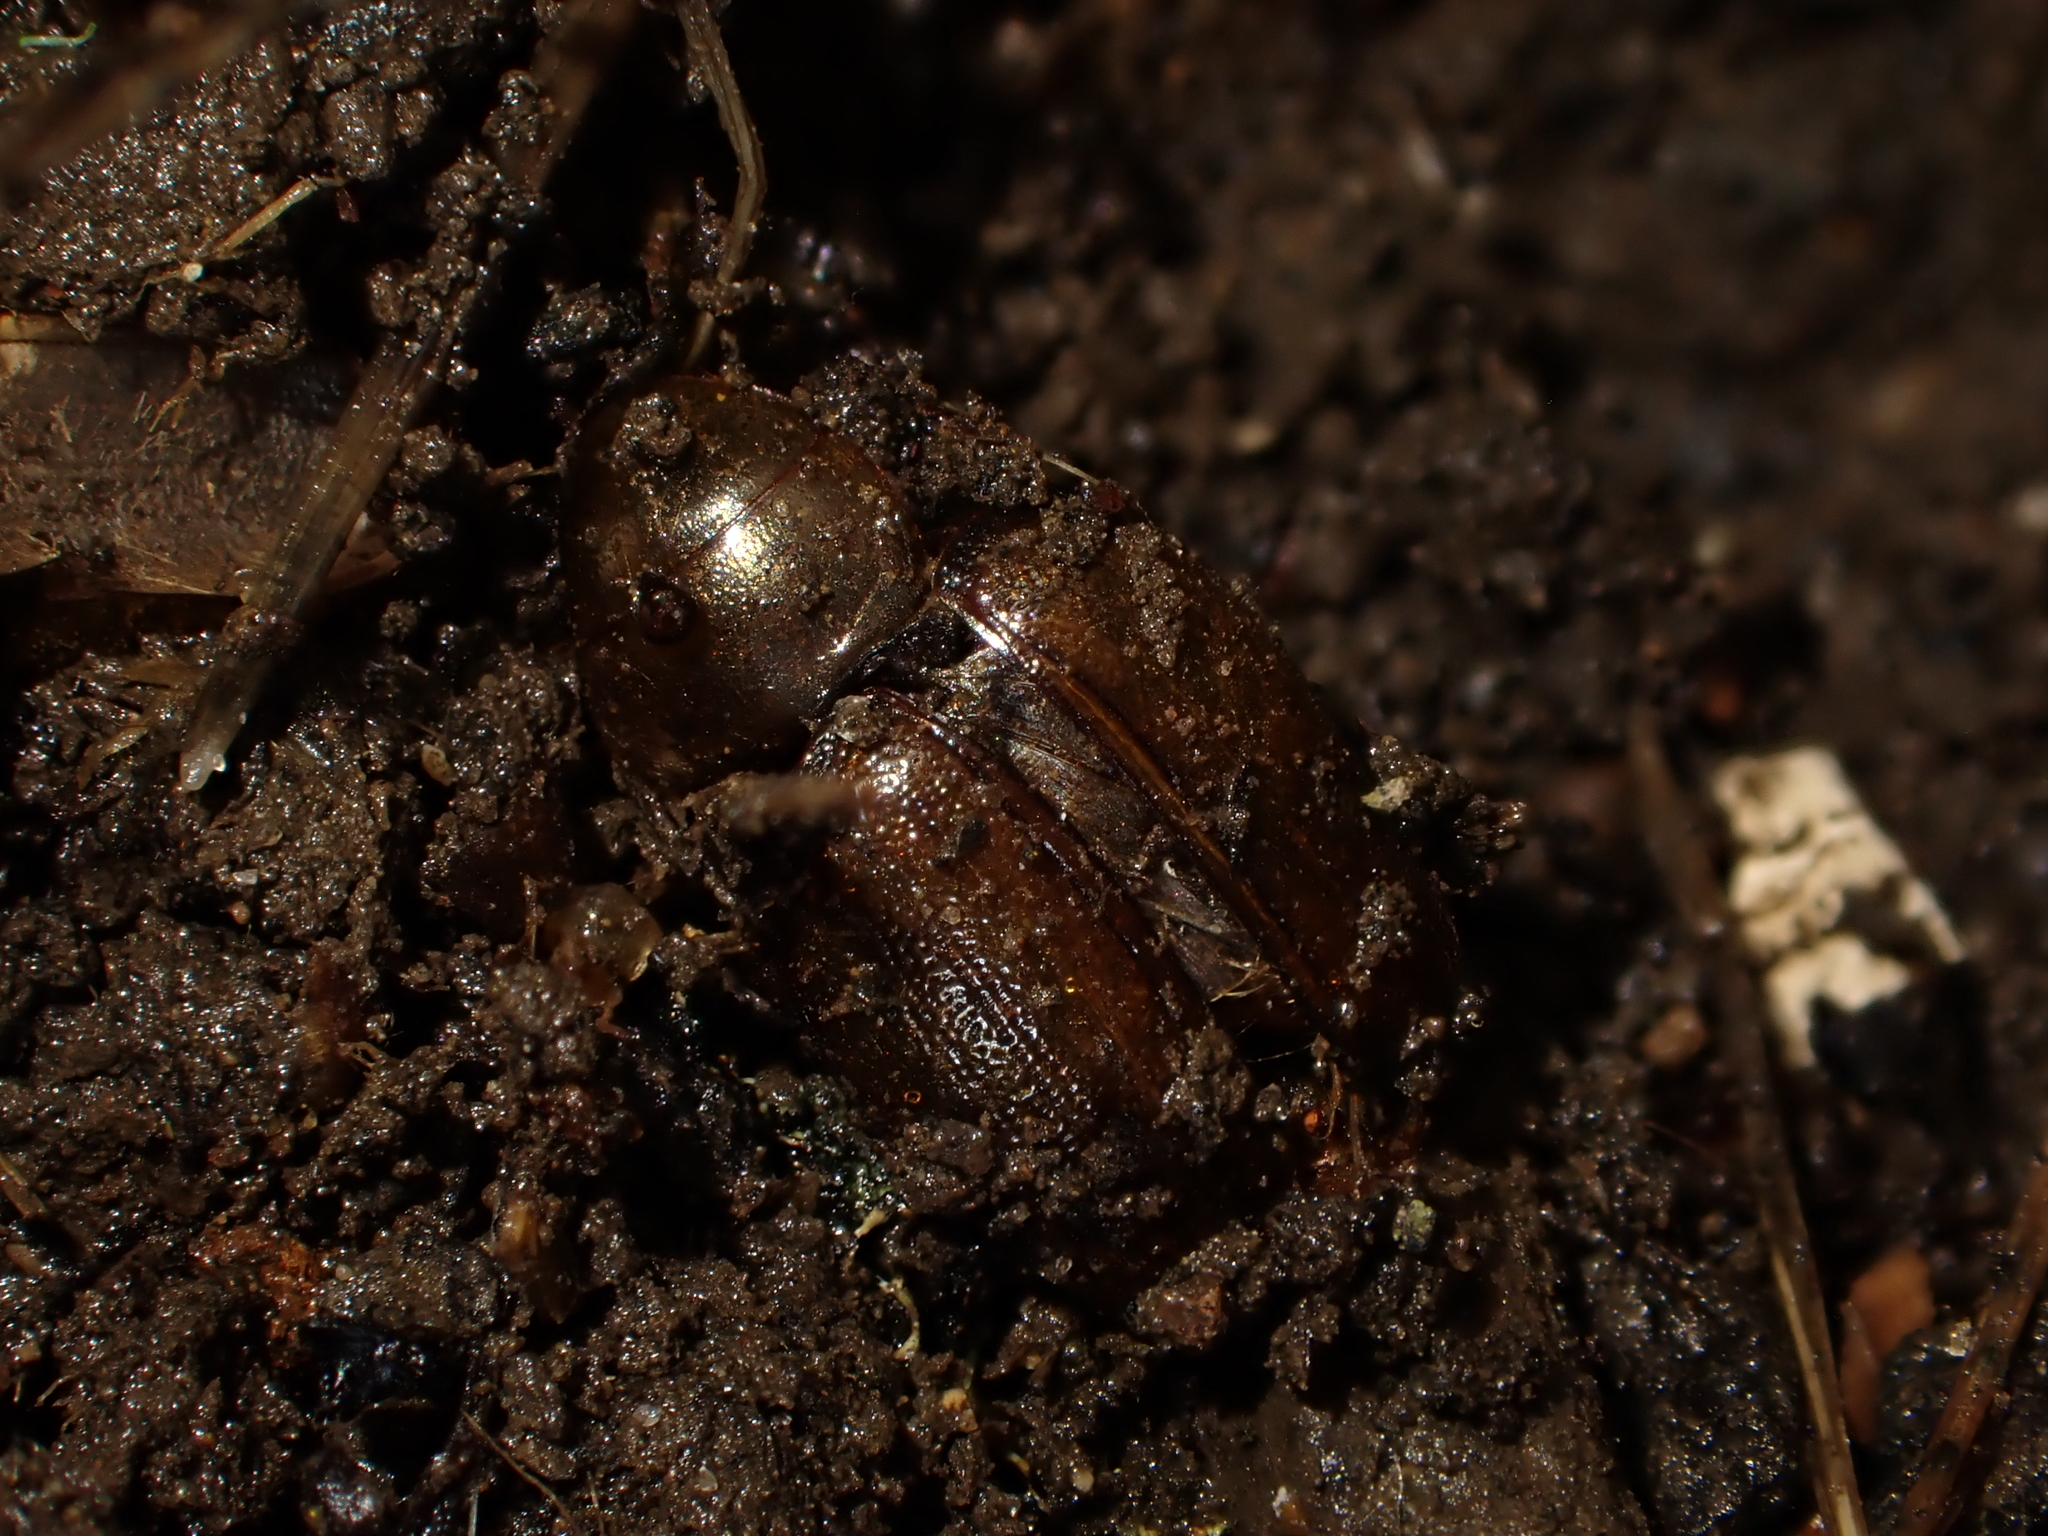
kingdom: Animalia
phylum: Arthropoda
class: Insecta
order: Coleoptera
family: Scarabaeidae
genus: Costelytra
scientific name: Costelytra zealandica
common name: New zealand grass grub
